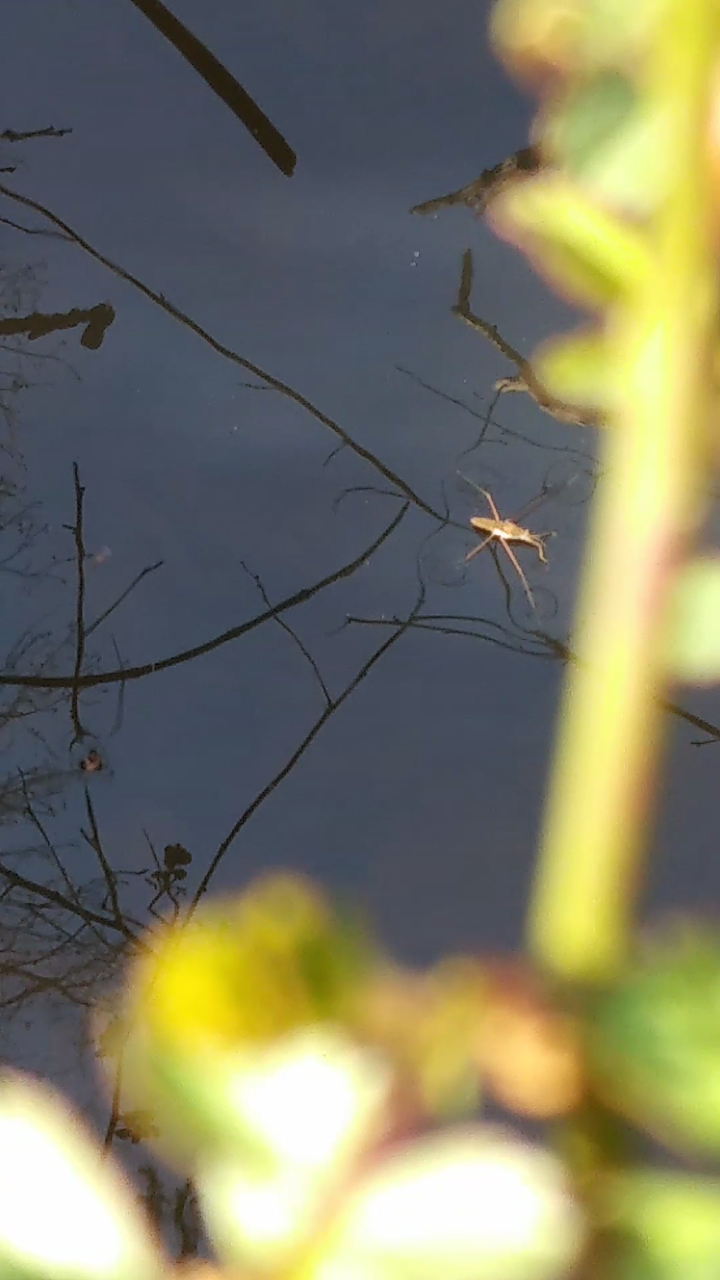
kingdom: Animalia
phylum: Arthropoda
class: Insecta
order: Hemiptera
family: Gerridae
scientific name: Gerridae
